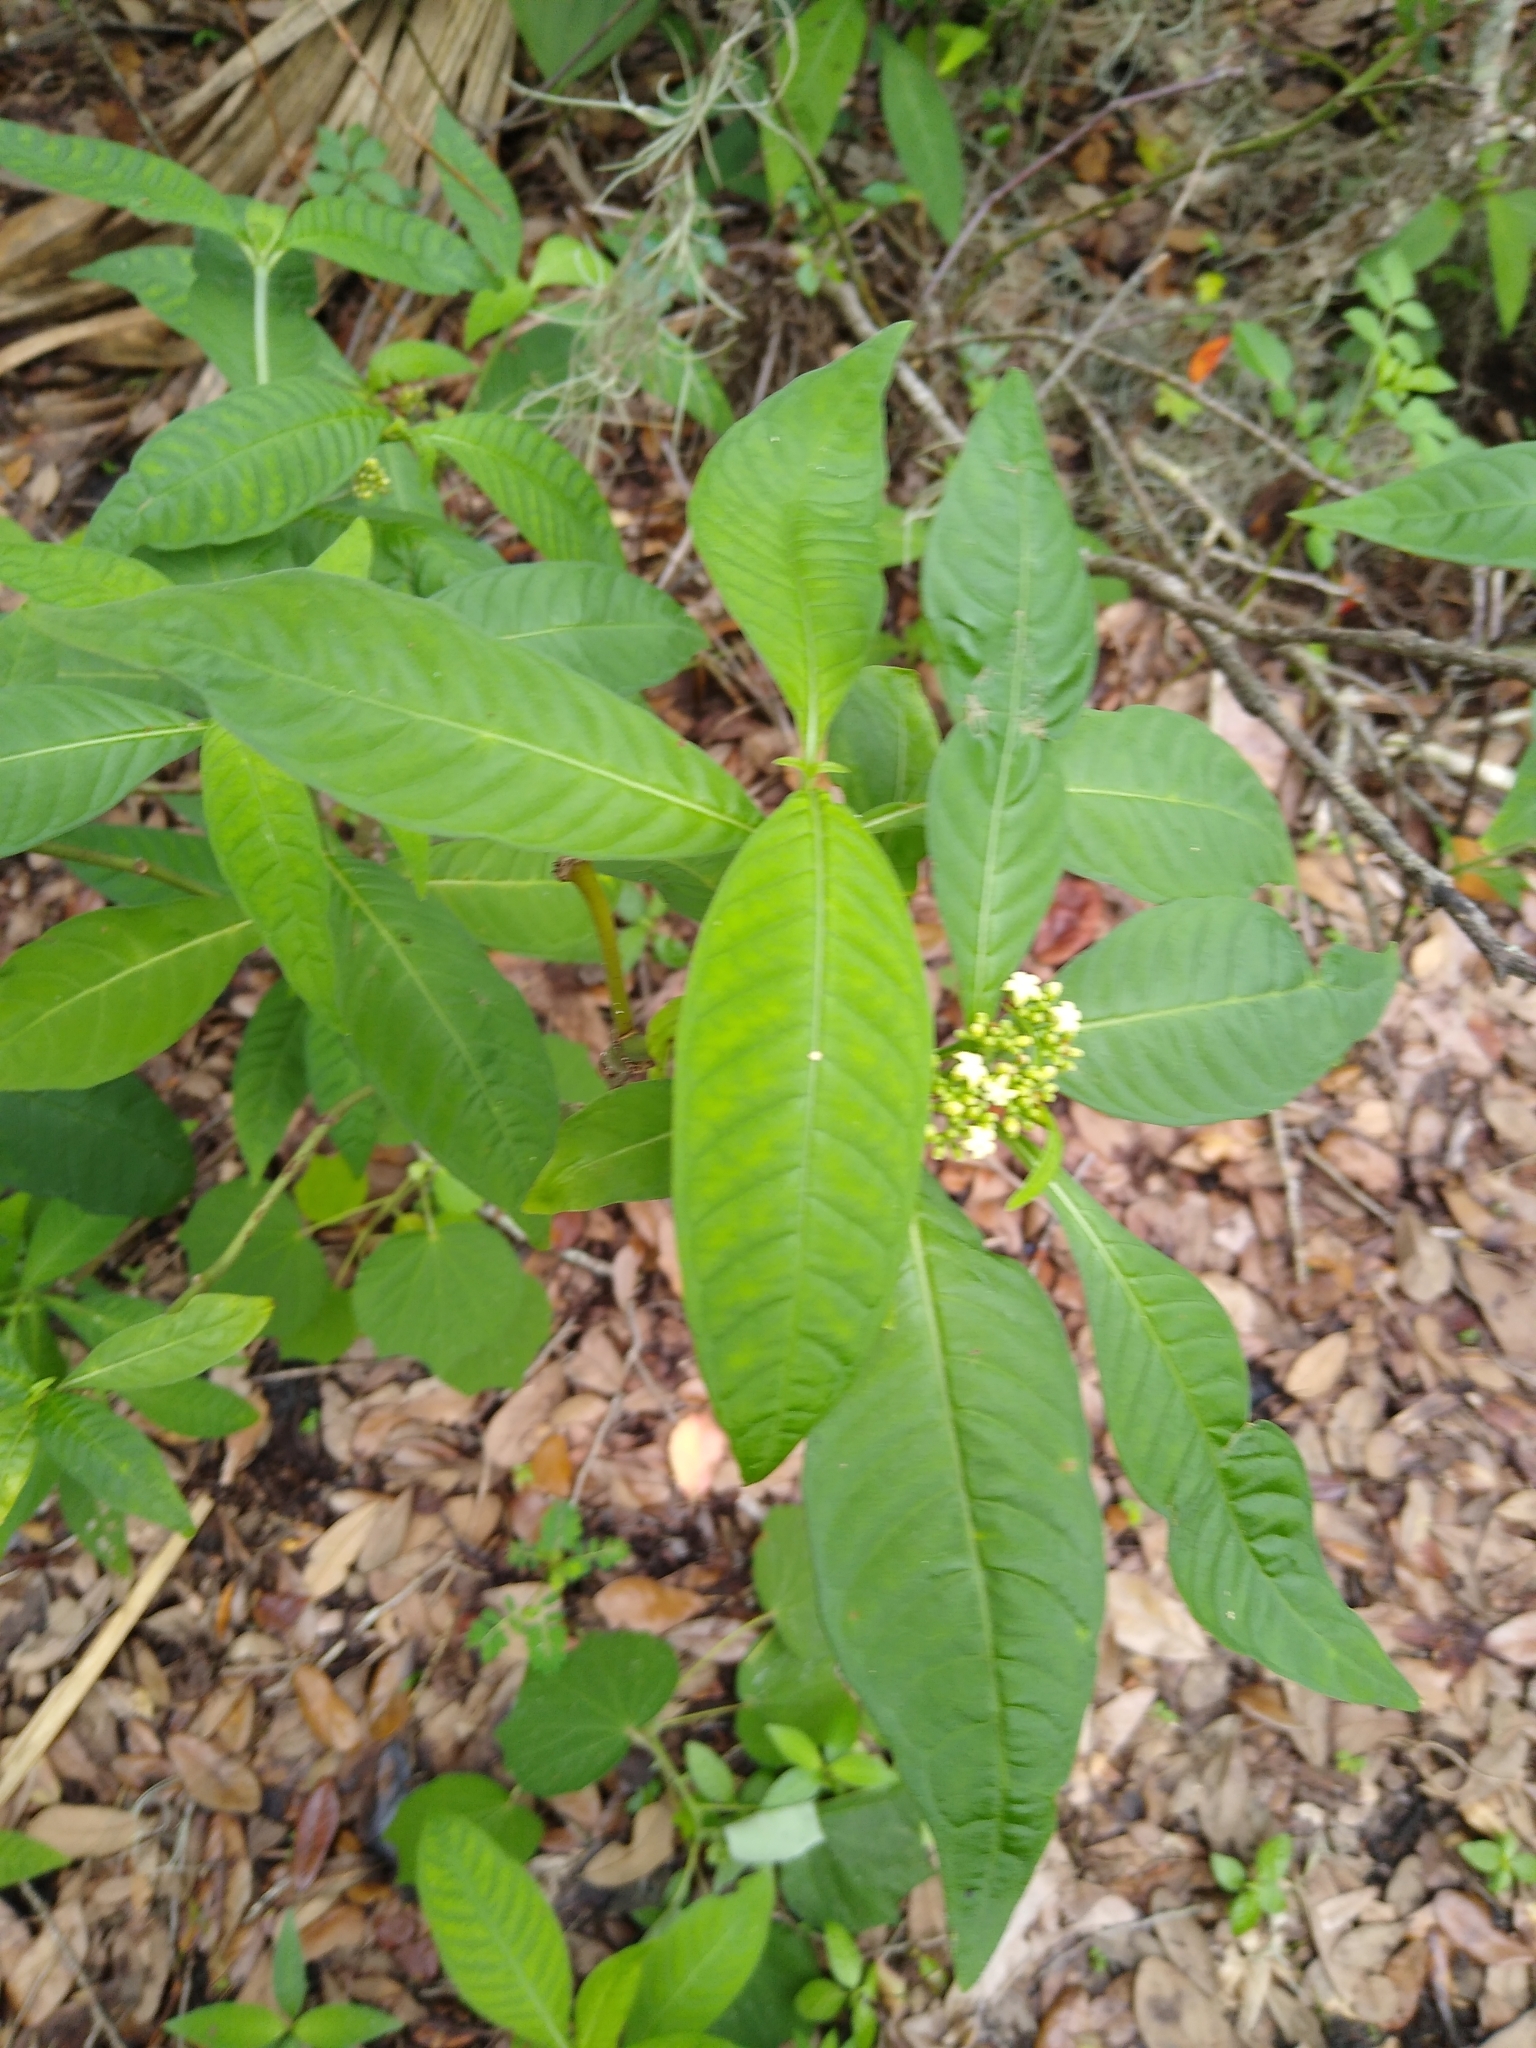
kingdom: Plantae
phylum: Tracheophyta
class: Magnoliopsida
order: Gentianales
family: Rubiaceae
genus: Psychotria
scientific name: Psychotria tenuifolia
